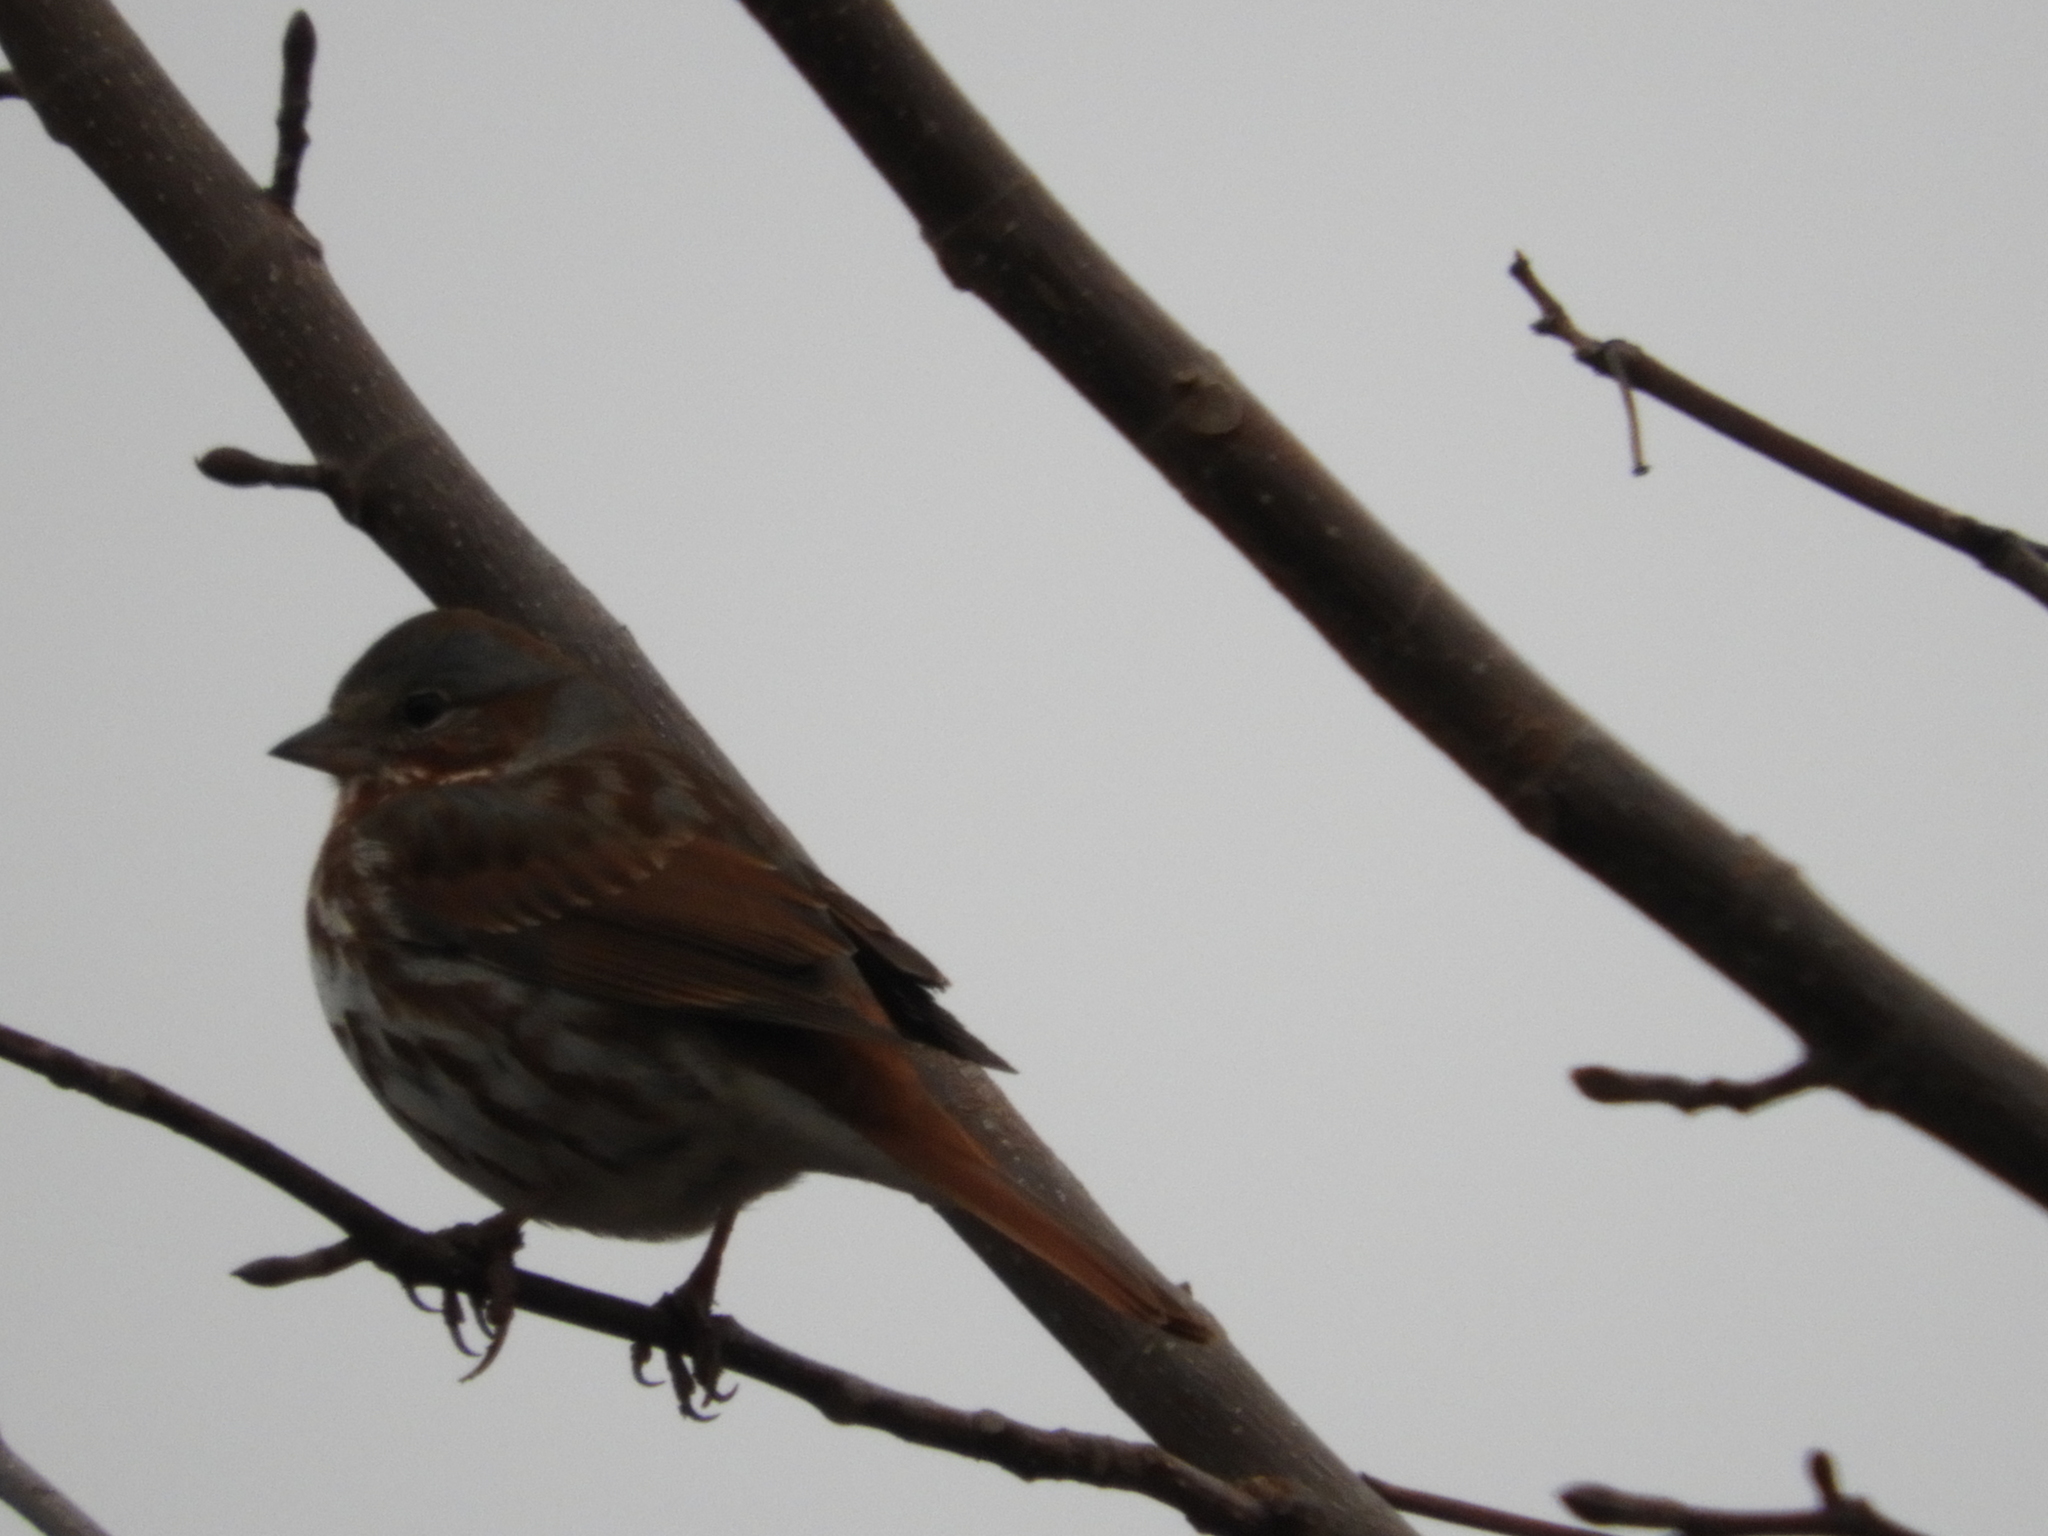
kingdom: Animalia
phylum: Chordata
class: Aves
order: Passeriformes
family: Passerellidae
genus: Passerella
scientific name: Passerella iliaca
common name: Fox sparrow
